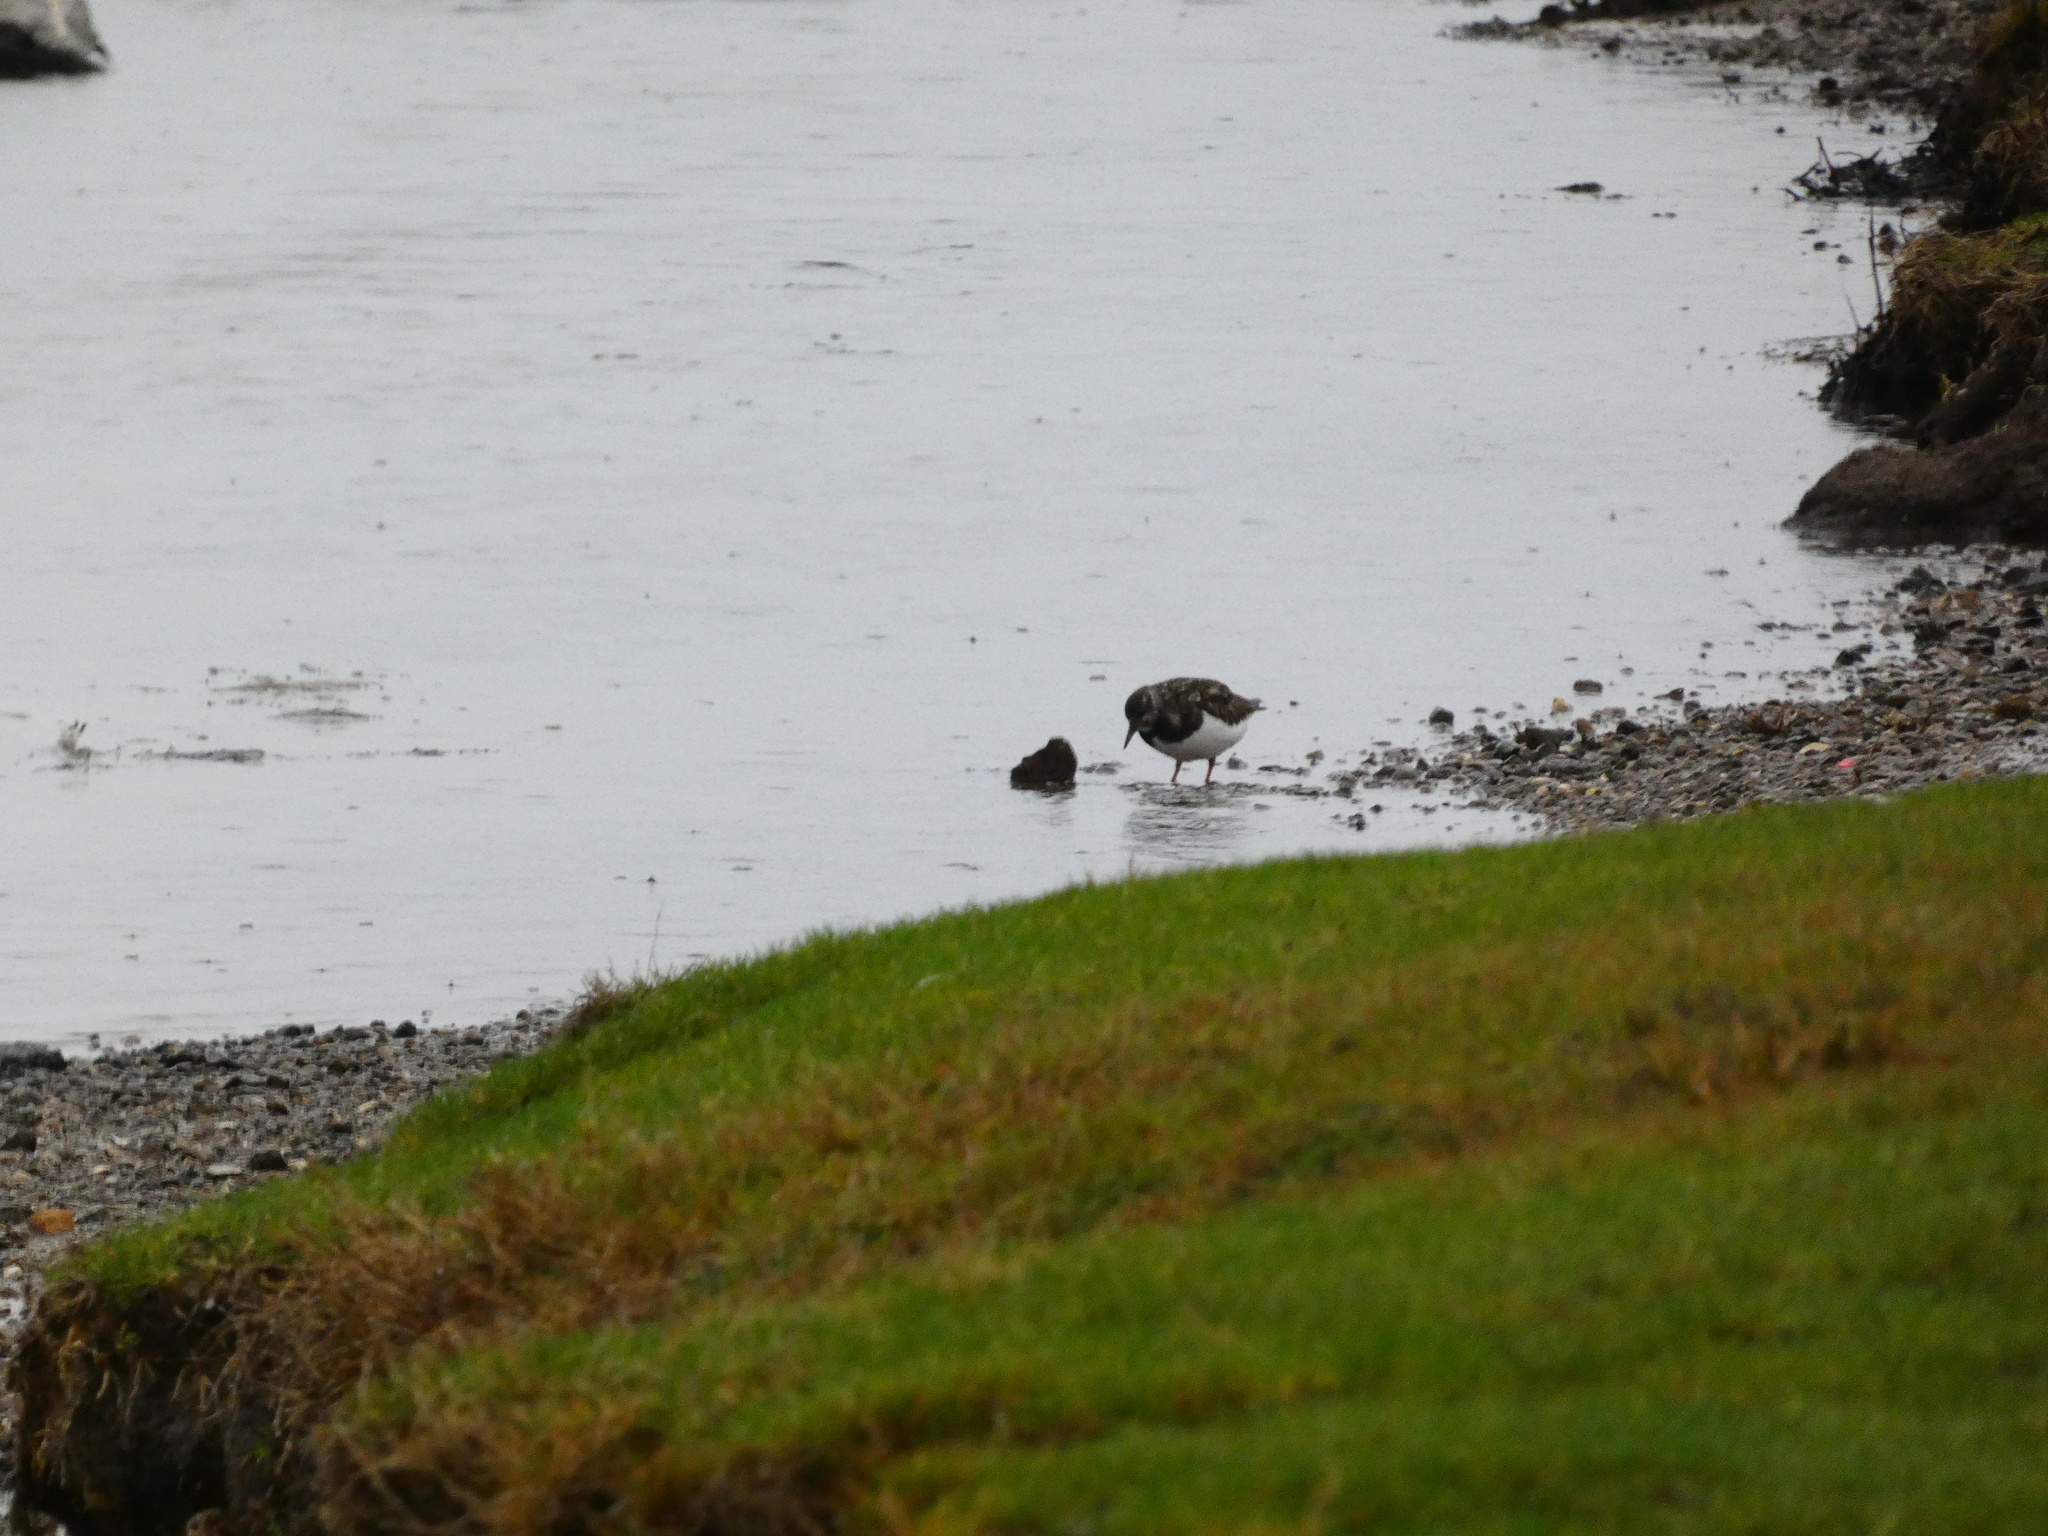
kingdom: Animalia
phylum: Chordata
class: Aves
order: Charadriiformes
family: Scolopacidae
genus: Arenaria
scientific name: Arenaria interpres
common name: Ruddy turnstone
